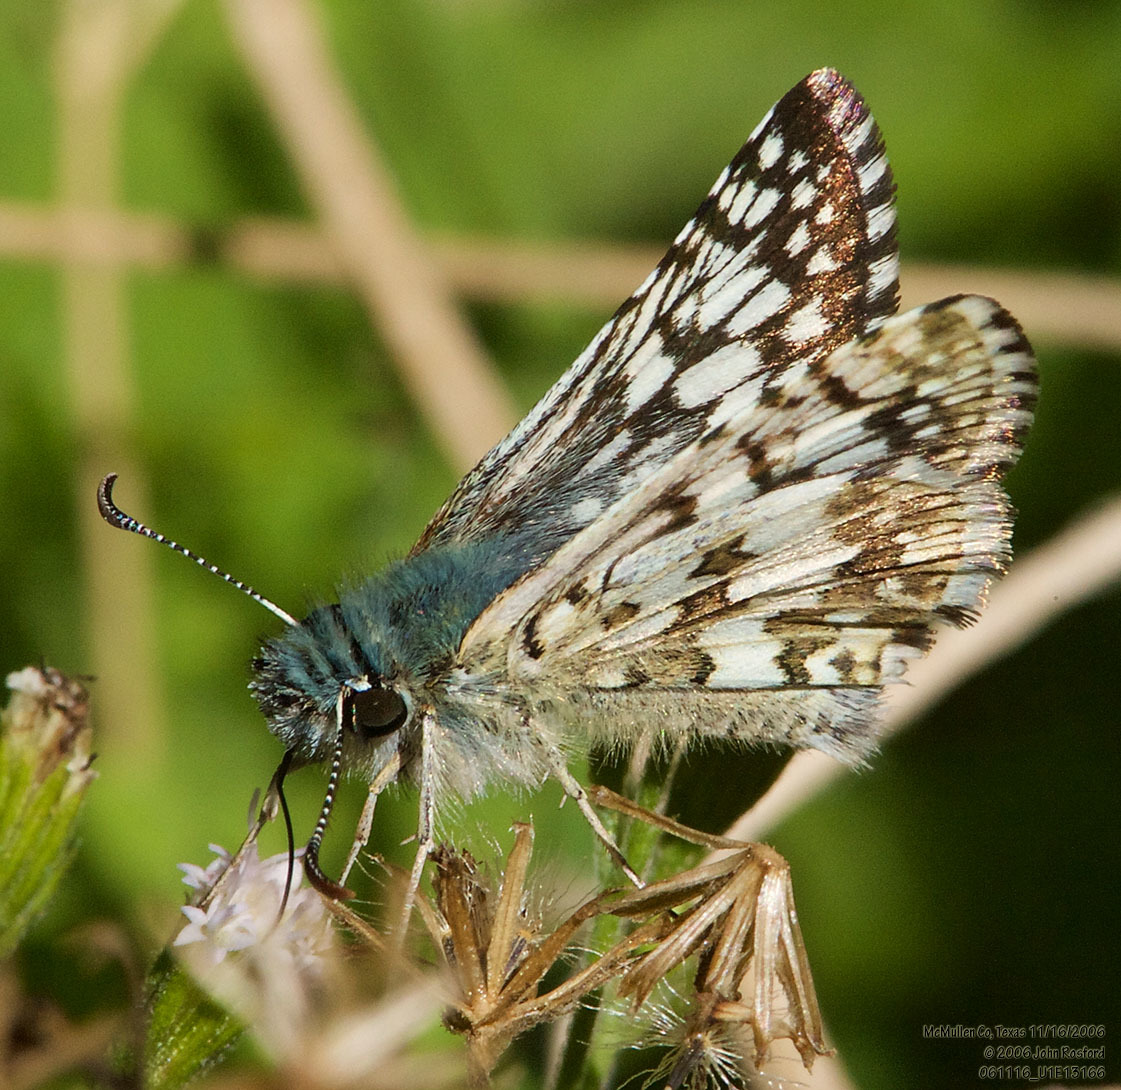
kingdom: Animalia
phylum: Arthropoda
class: Insecta
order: Lepidoptera
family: Hesperiidae
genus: Burnsius
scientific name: Burnsius
